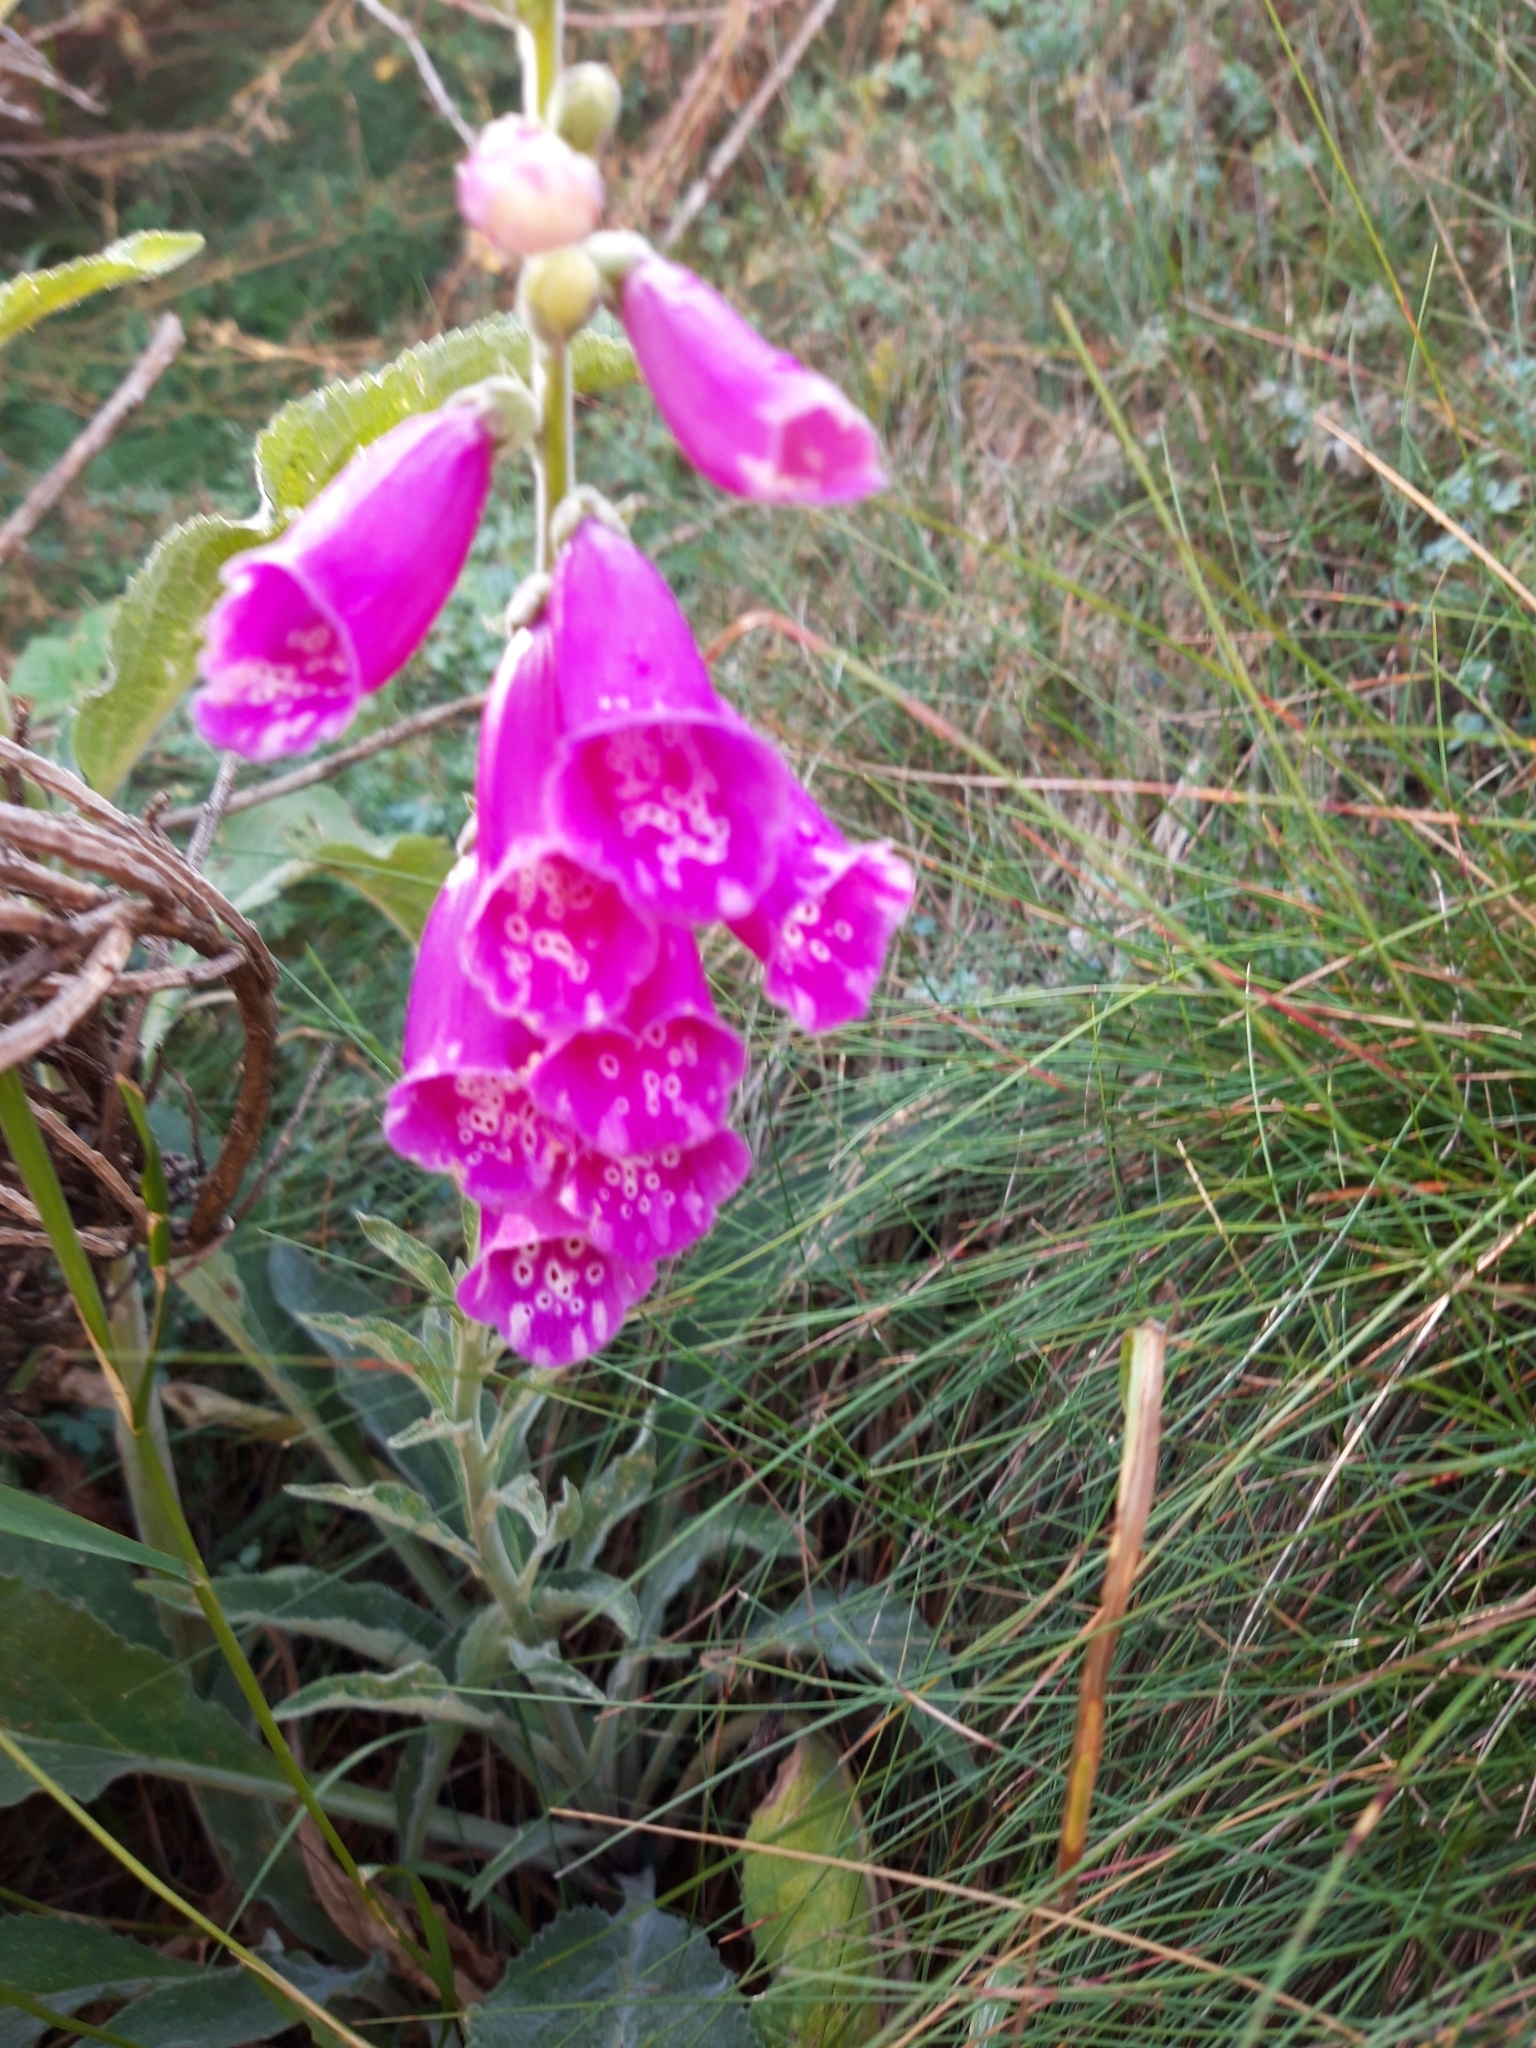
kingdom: Plantae
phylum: Tracheophyta
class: Magnoliopsida
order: Lamiales
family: Plantaginaceae
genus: Digitalis
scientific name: Digitalis purpurea
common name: Foxglove
